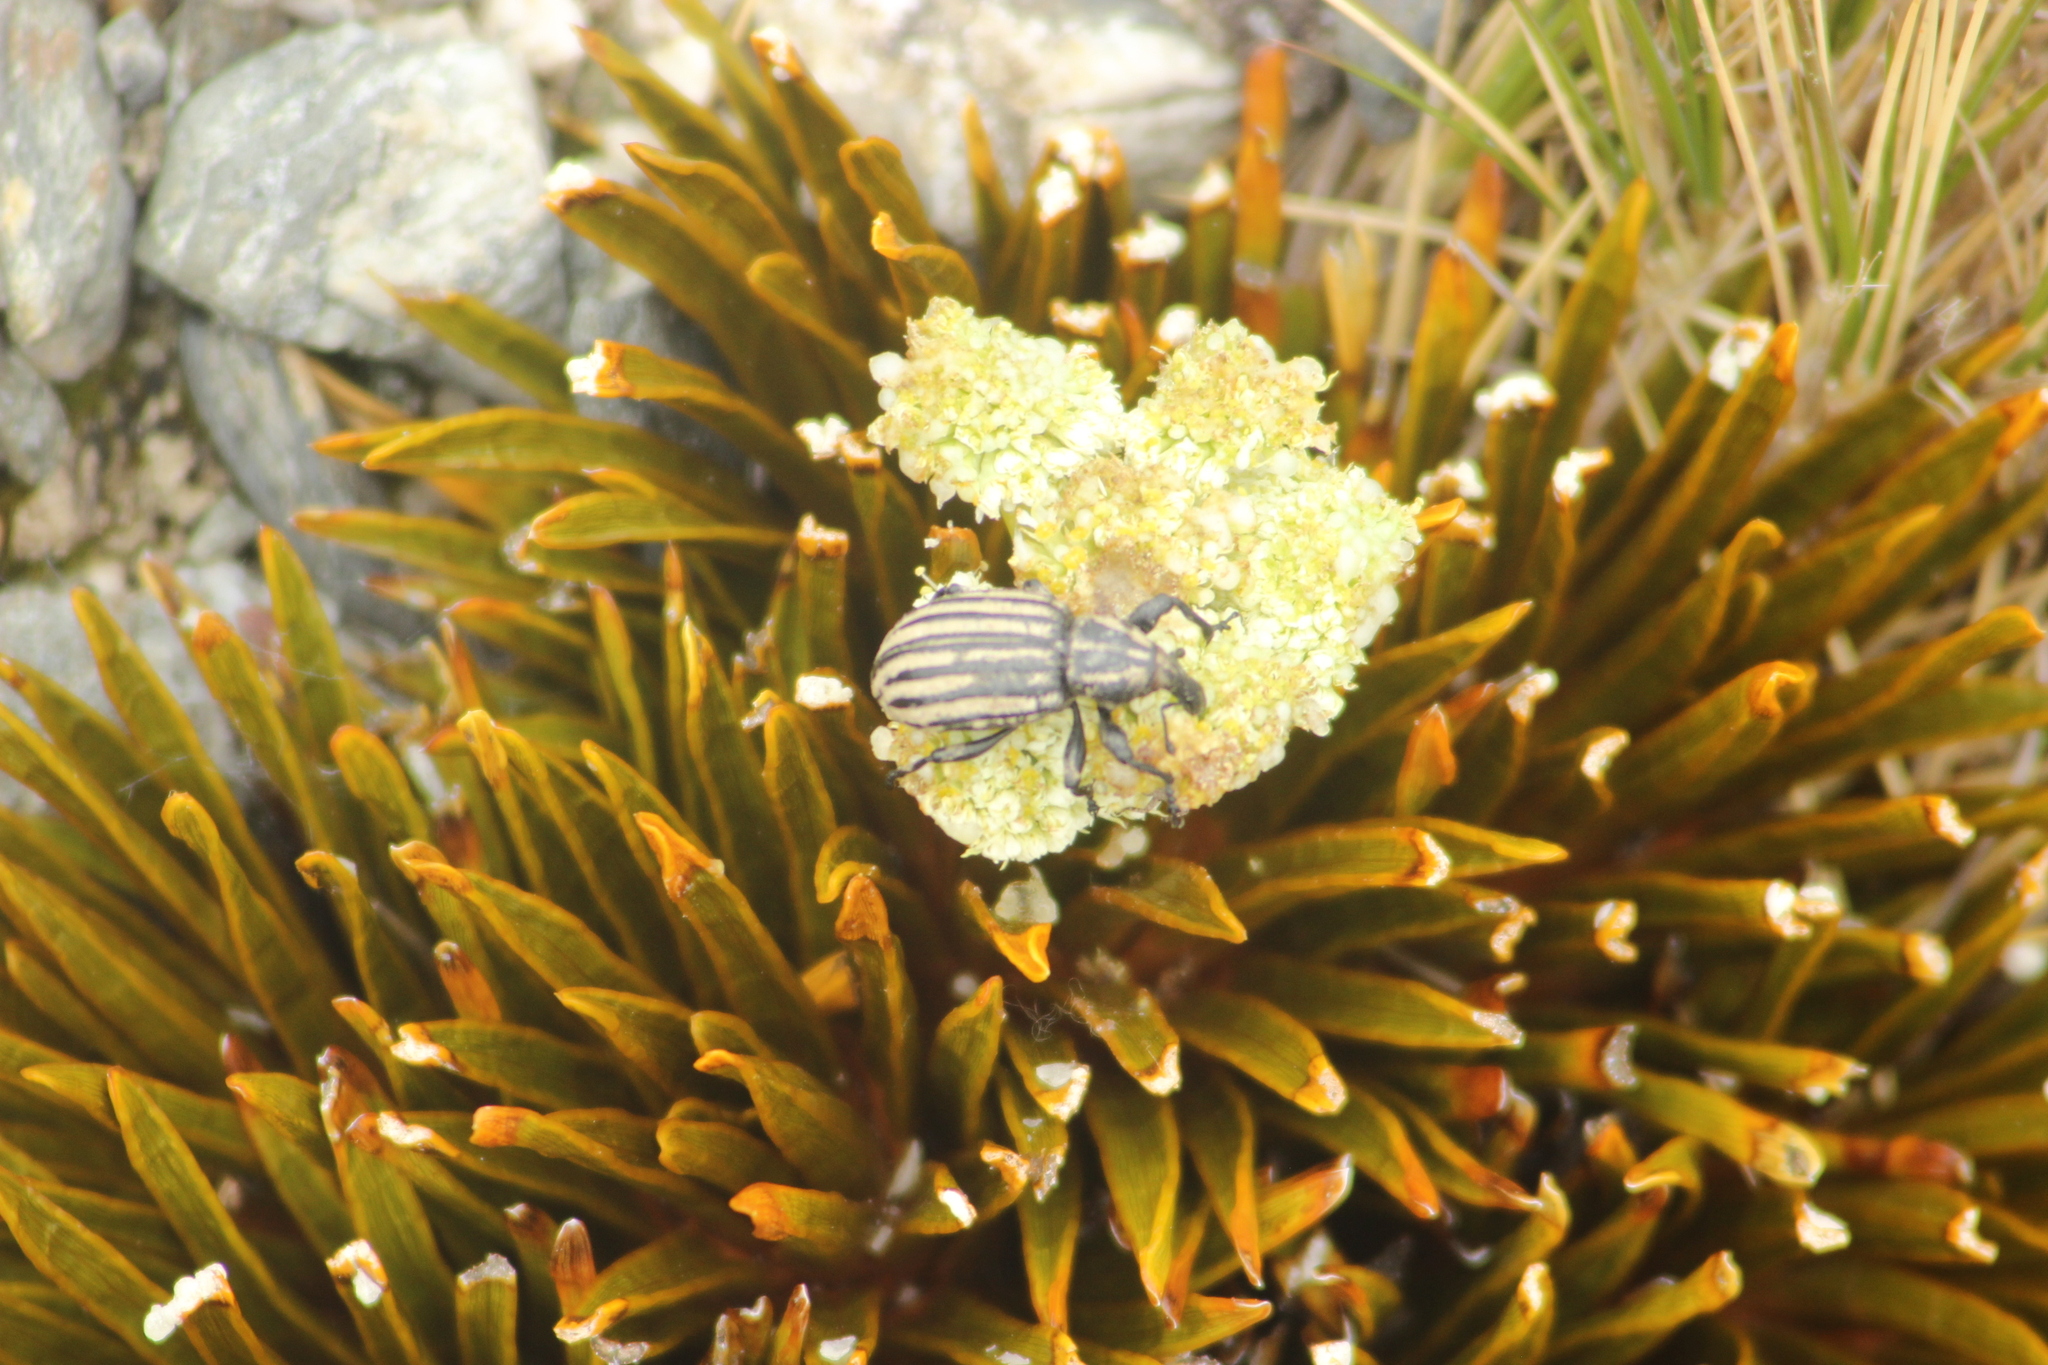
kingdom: Animalia
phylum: Arthropoda
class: Insecta
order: Coleoptera
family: Curculionidae
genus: Lyperobius
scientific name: Lyperobius hudsoni
